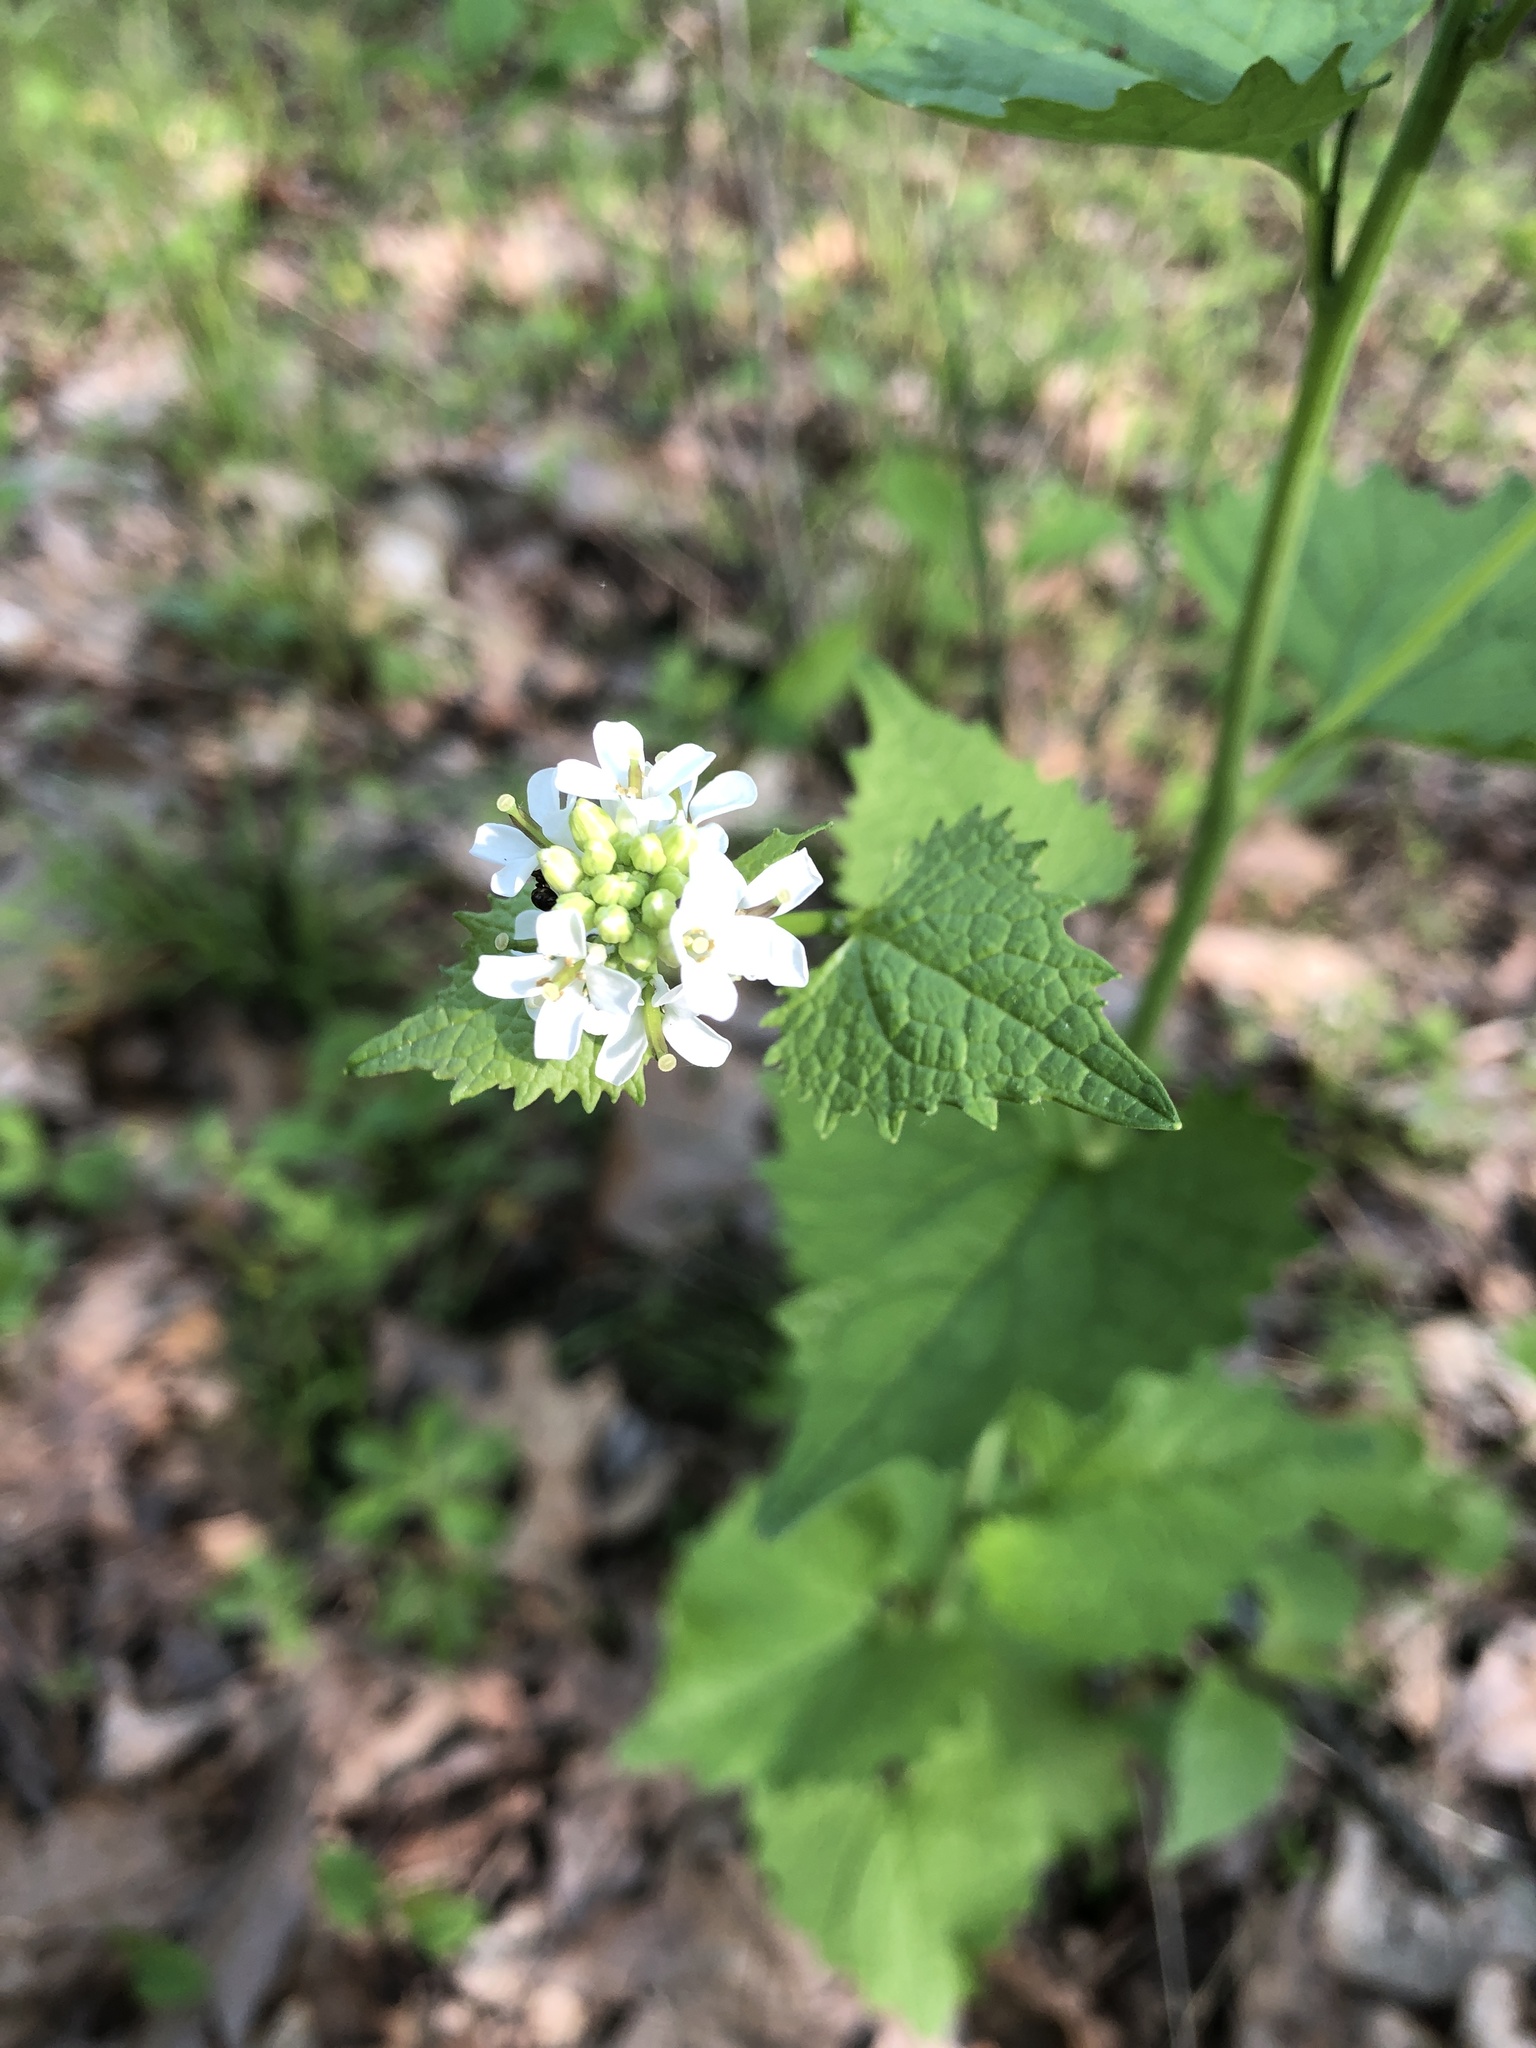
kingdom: Plantae
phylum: Tracheophyta
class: Magnoliopsida
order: Brassicales
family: Brassicaceae
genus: Alliaria
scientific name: Alliaria petiolata
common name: Garlic mustard
